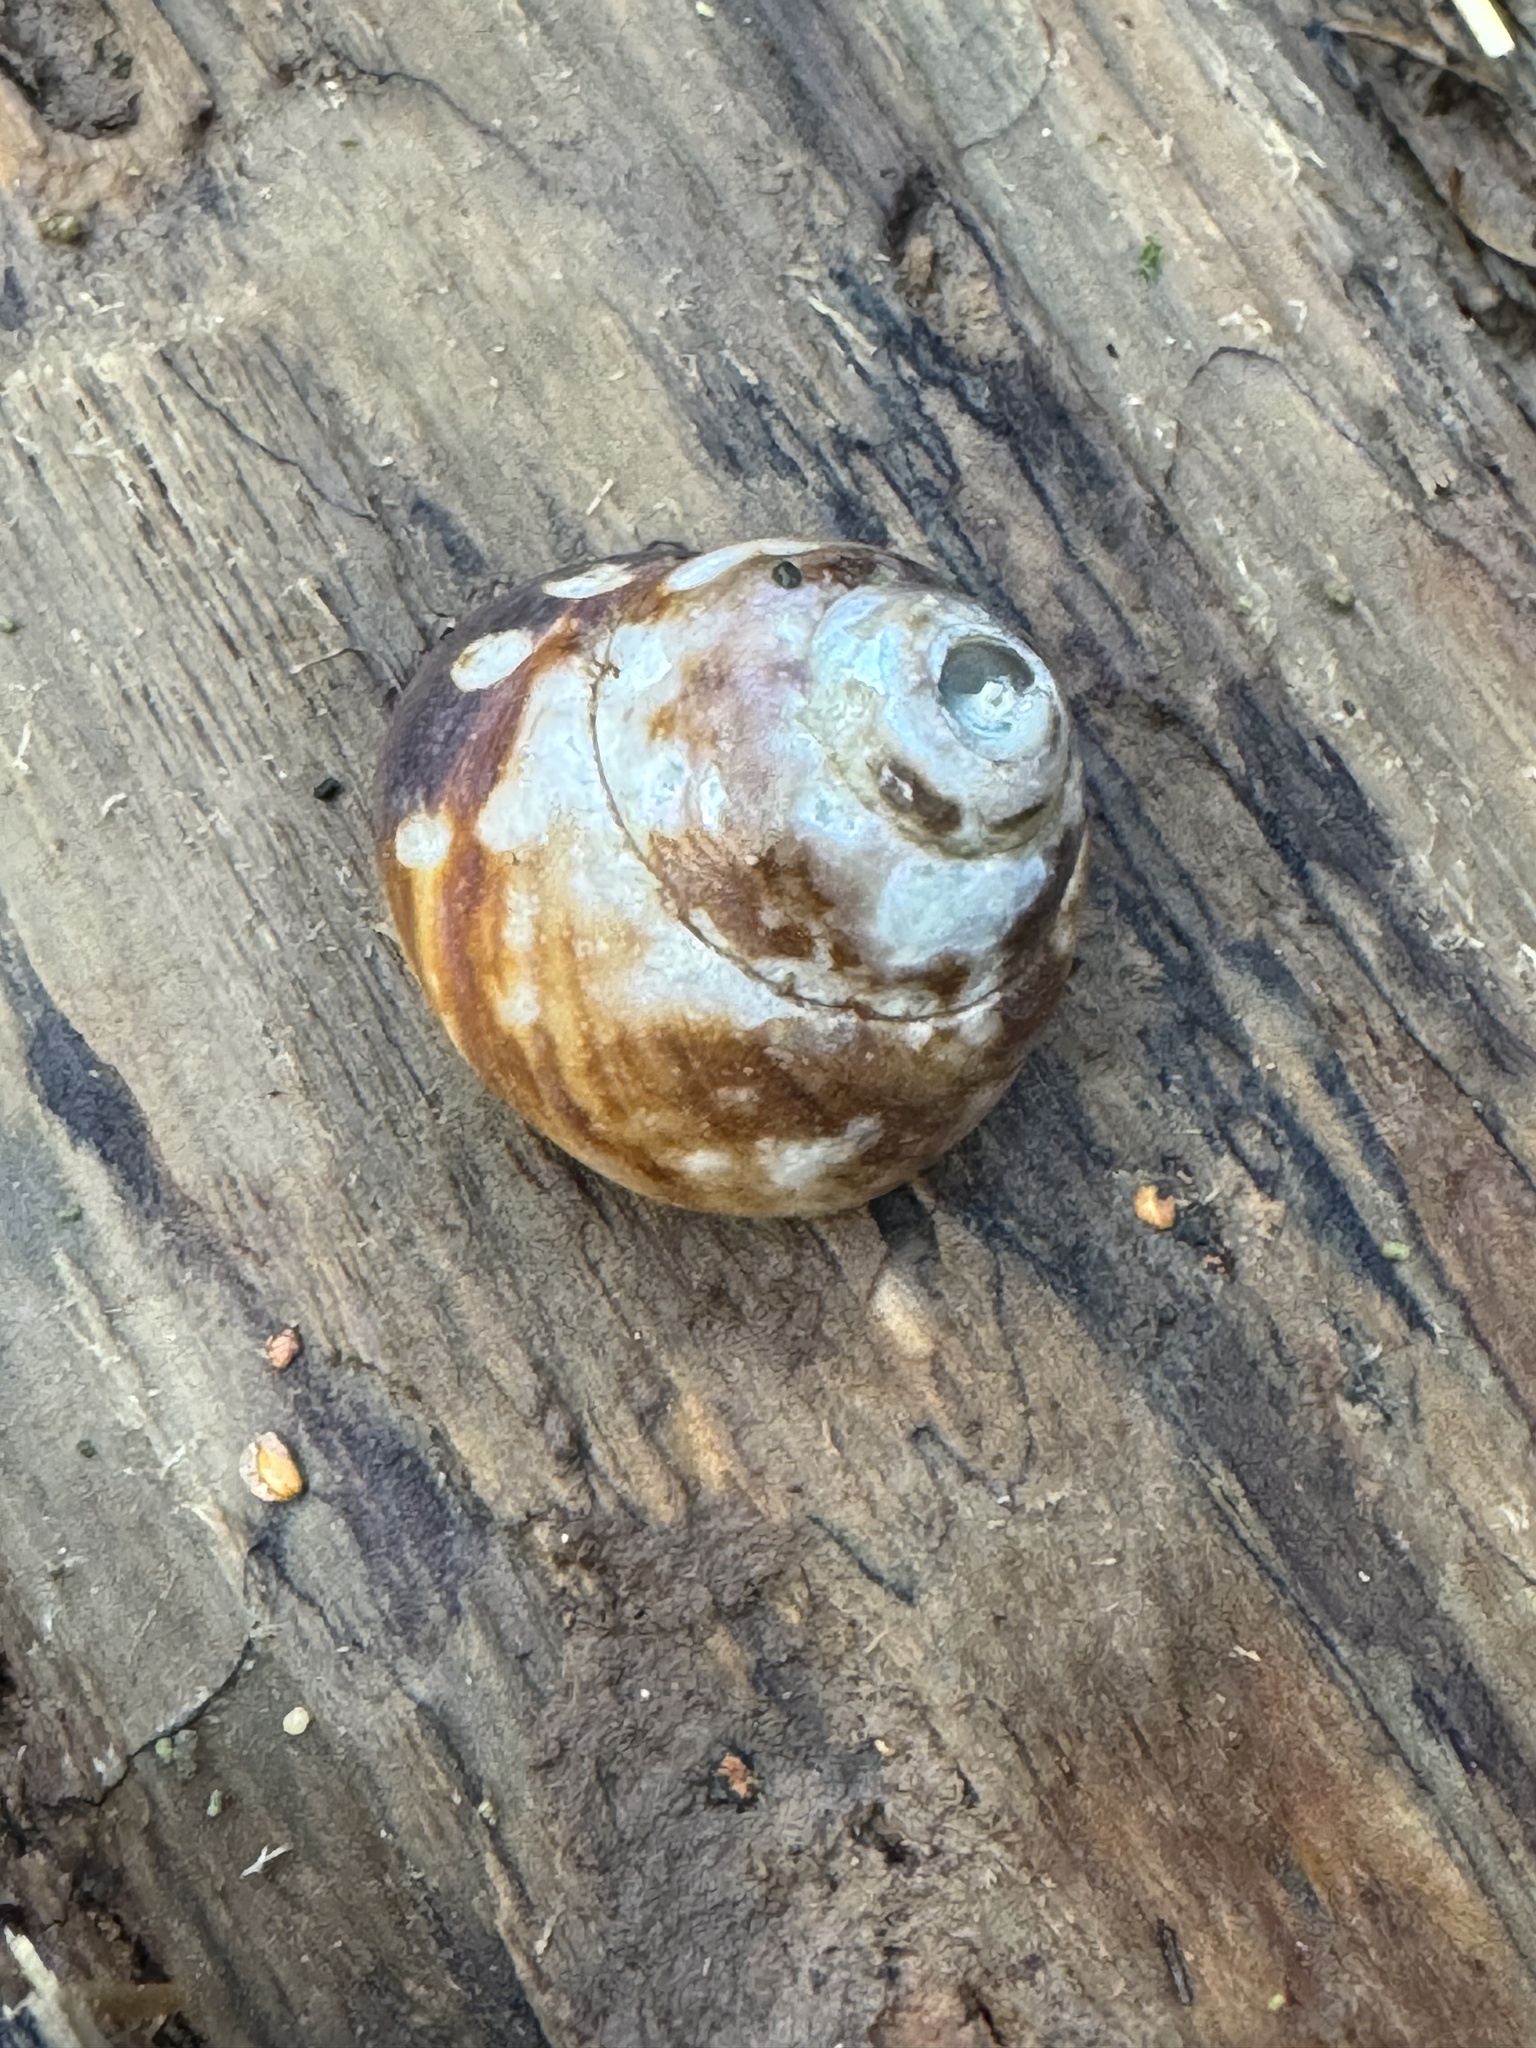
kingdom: Animalia
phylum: Mollusca
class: Gastropoda
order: Trochida
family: Tegulidae
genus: Tegula
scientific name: Tegula brunnea
